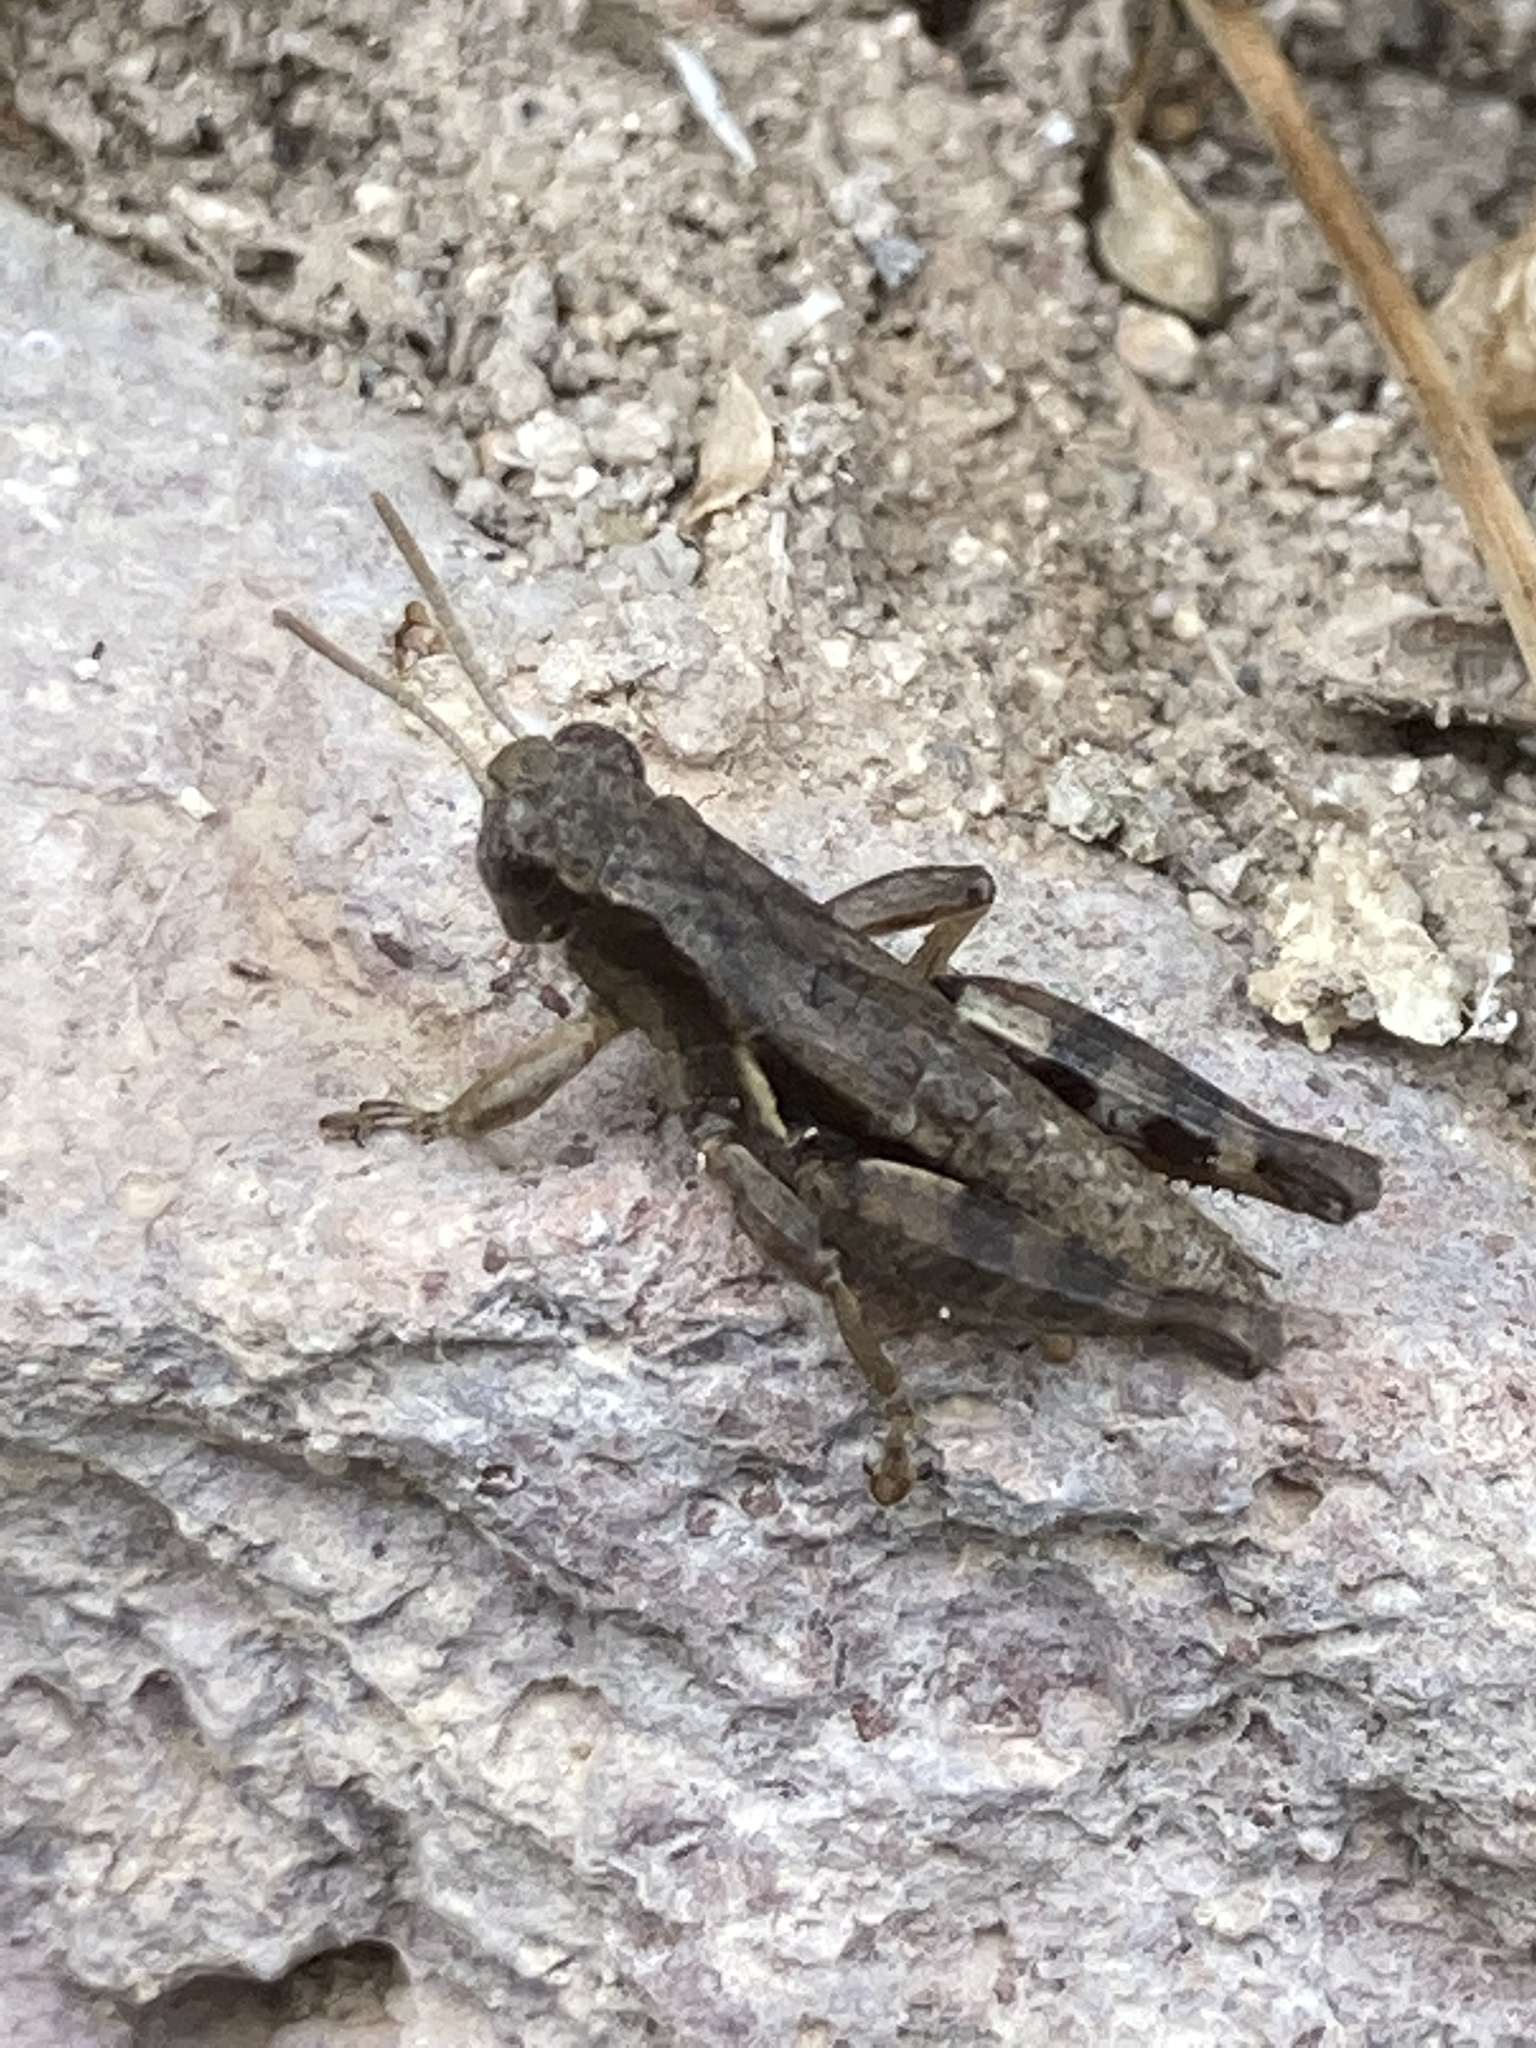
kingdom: Animalia
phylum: Arthropoda
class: Insecta
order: Orthoptera
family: Acrididae
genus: Pezotettix
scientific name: Pezotettix giornae
